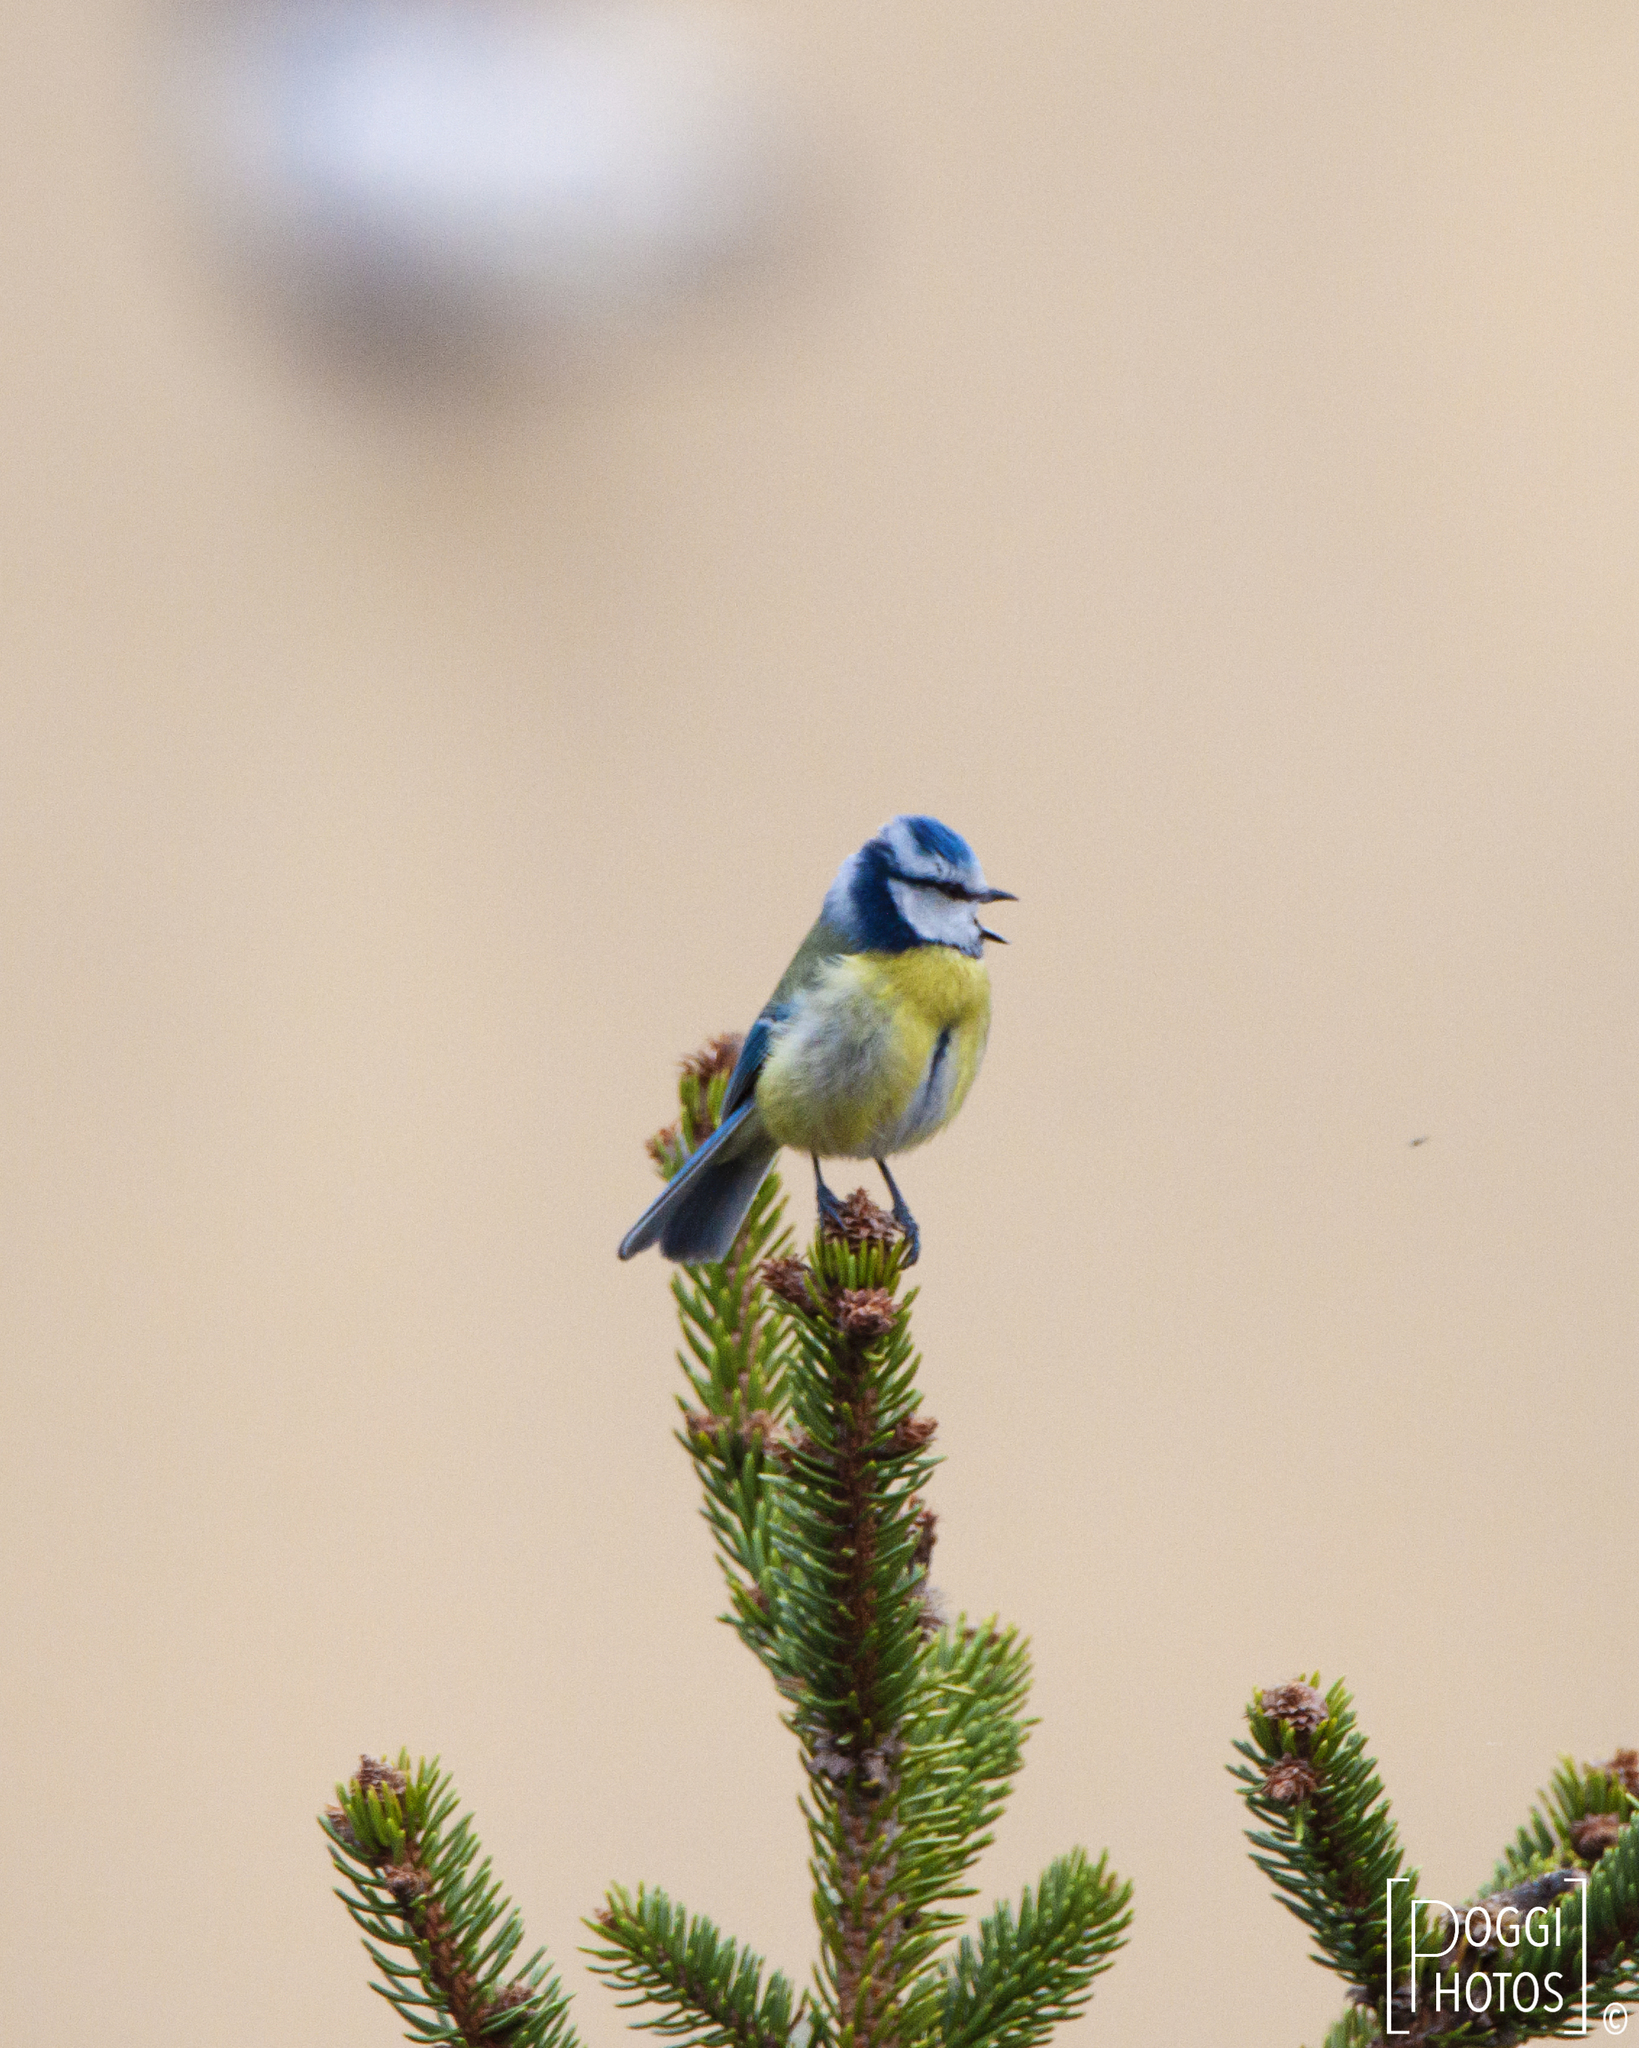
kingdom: Animalia
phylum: Chordata
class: Aves
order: Passeriformes
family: Paridae
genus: Cyanistes
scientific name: Cyanistes caeruleus
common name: Eurasian blue tit
